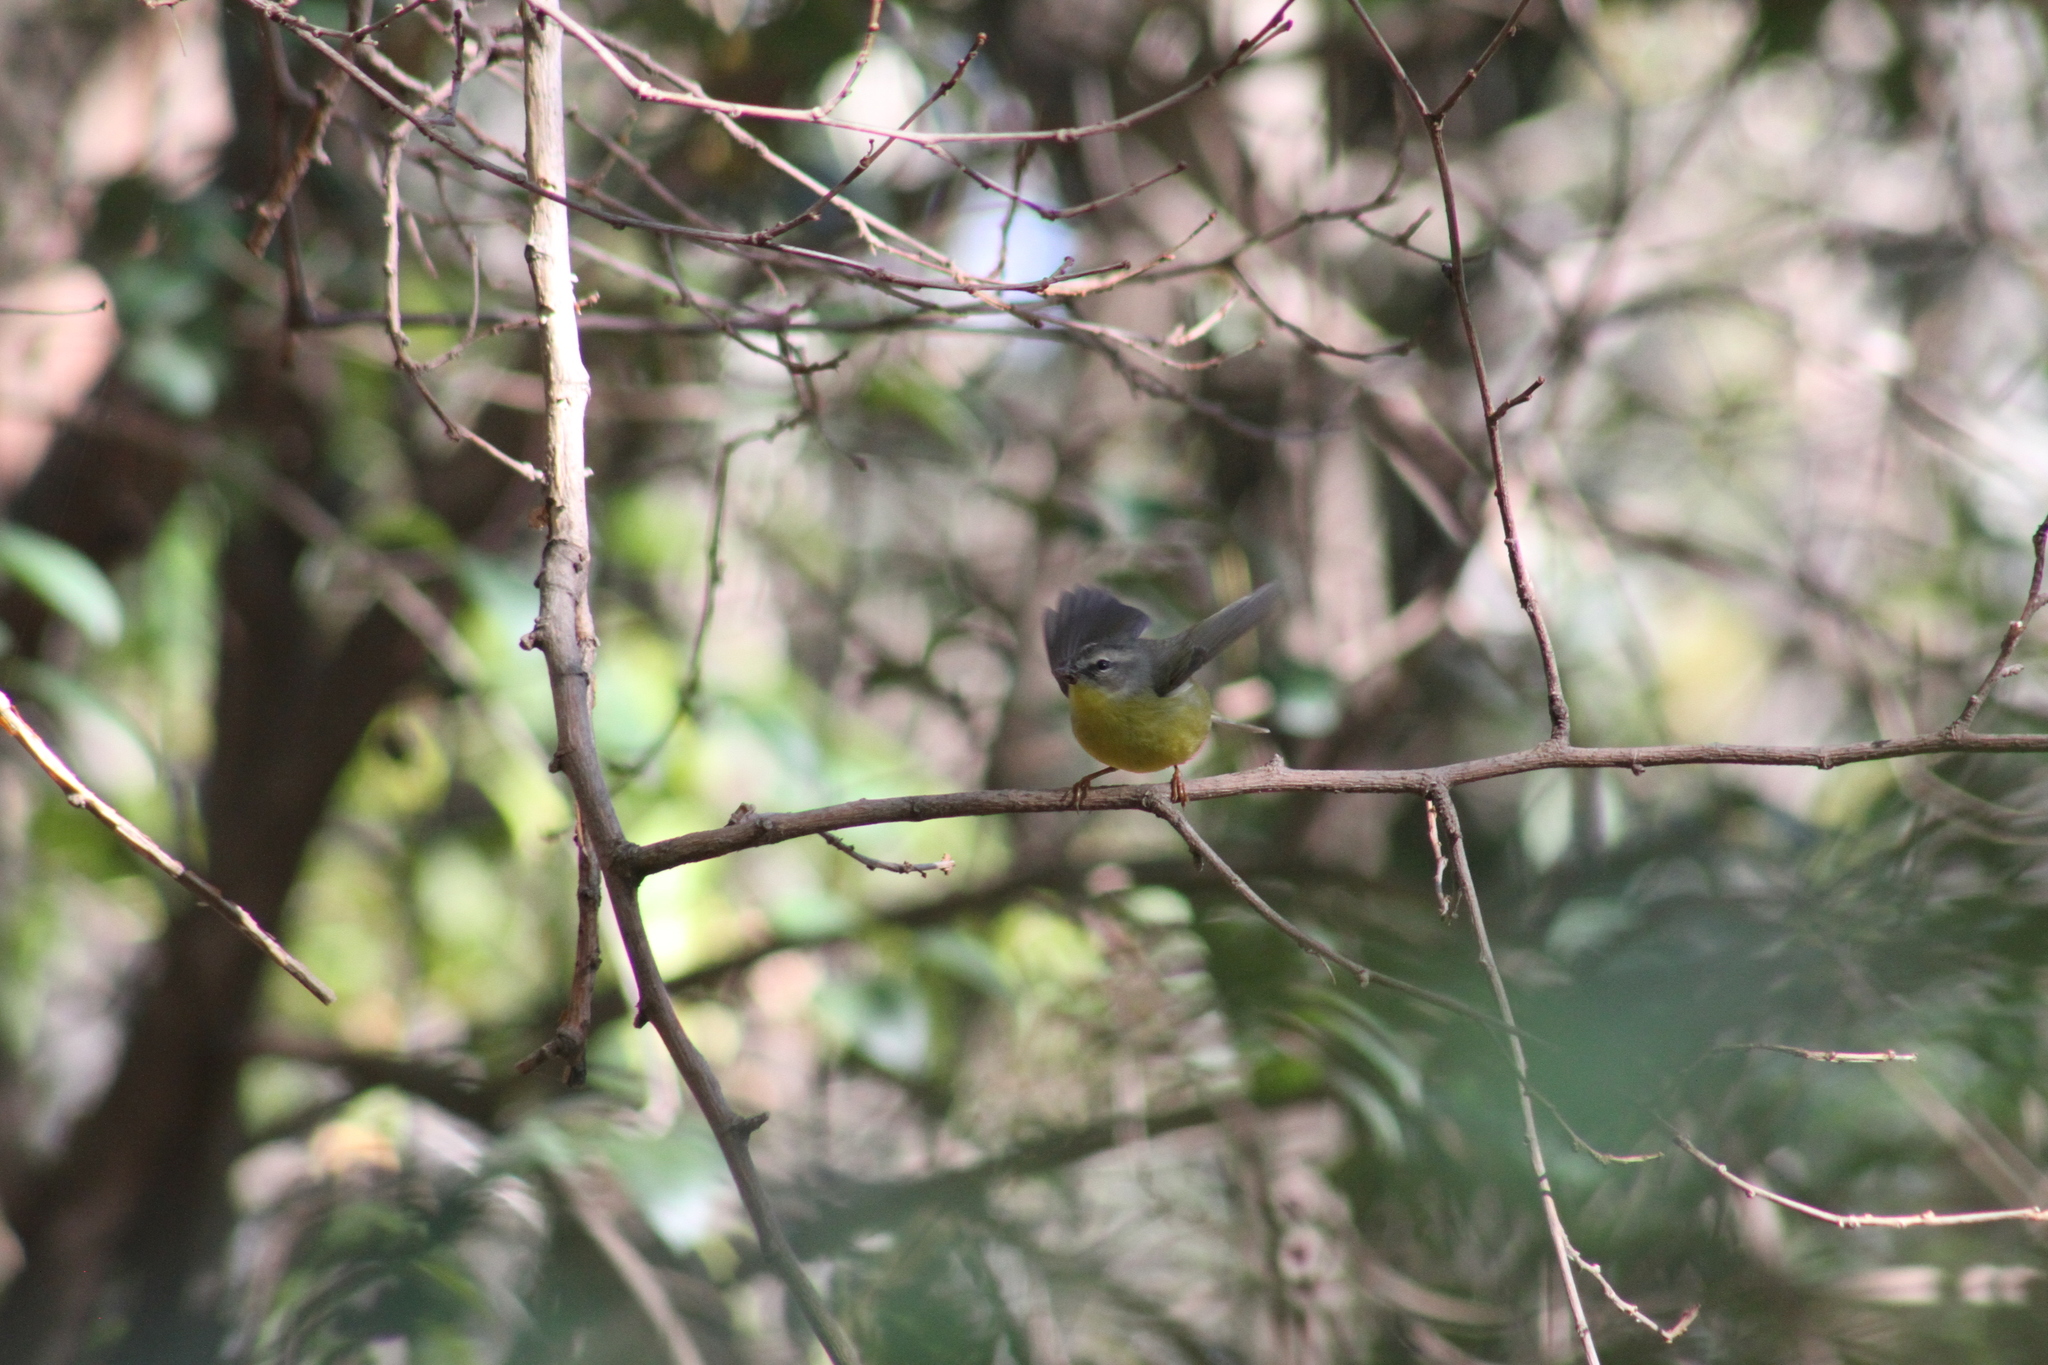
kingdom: Animalia
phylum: Chordata
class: Aves
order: Passeriformes
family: Parulidae
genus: Basileuterus
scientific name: Basileuterus culicivorus
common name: Golden-crowned warbler
